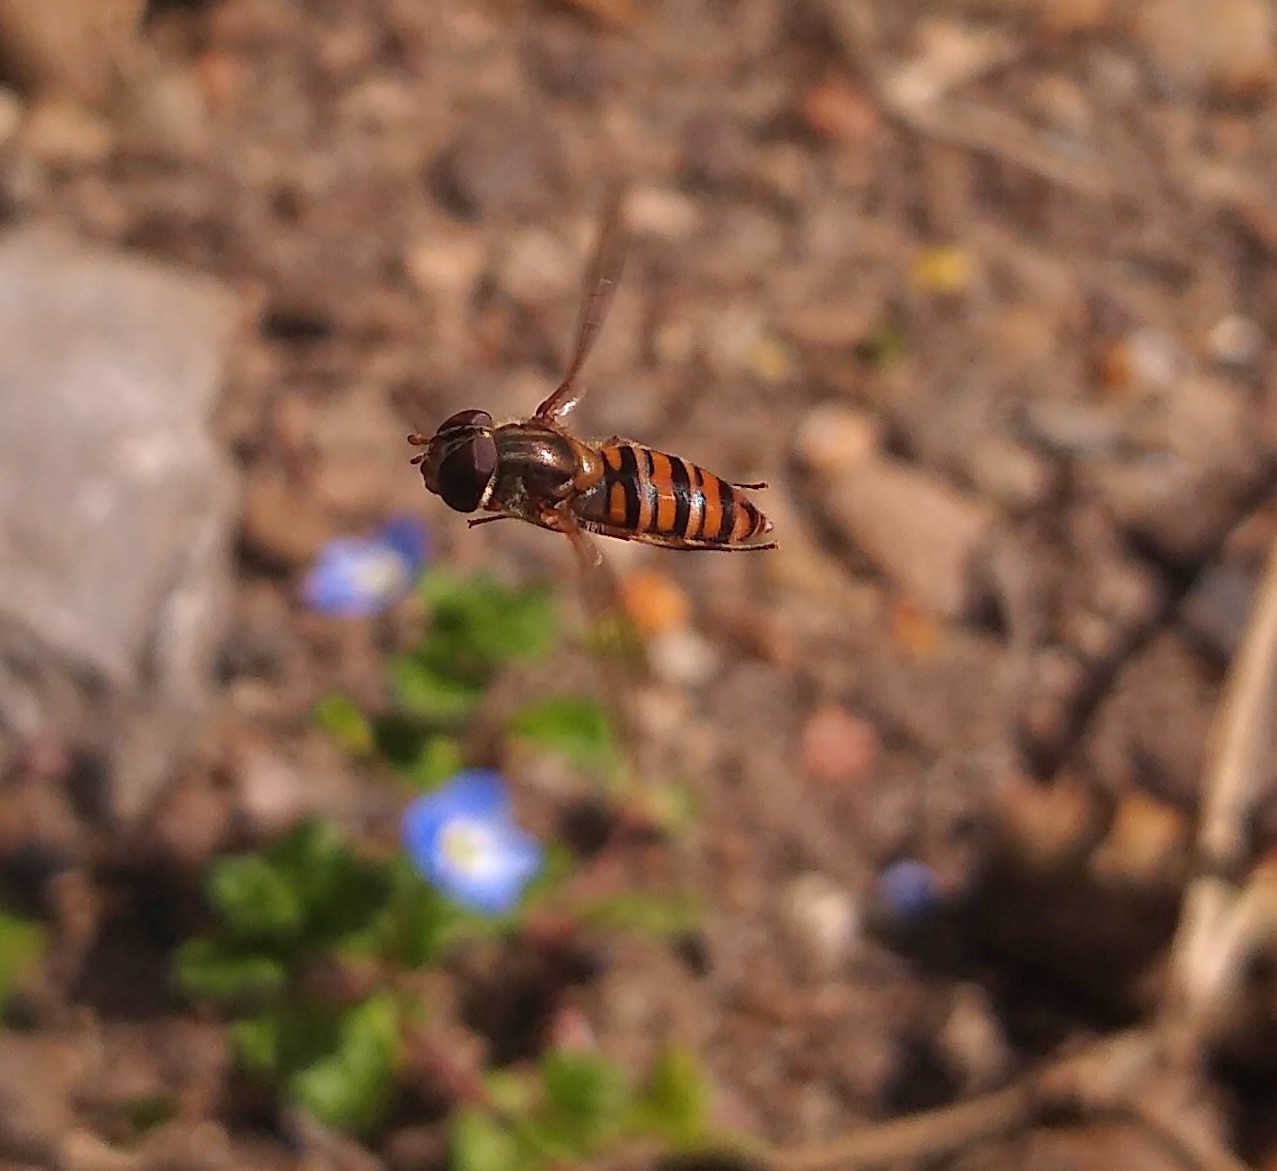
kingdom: Animalia
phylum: Arthropoda
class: Insecta
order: Diptera
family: Syrphidae
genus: Episyrphus
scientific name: Episyrphus balteatus
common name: Marmalade hoverfly
